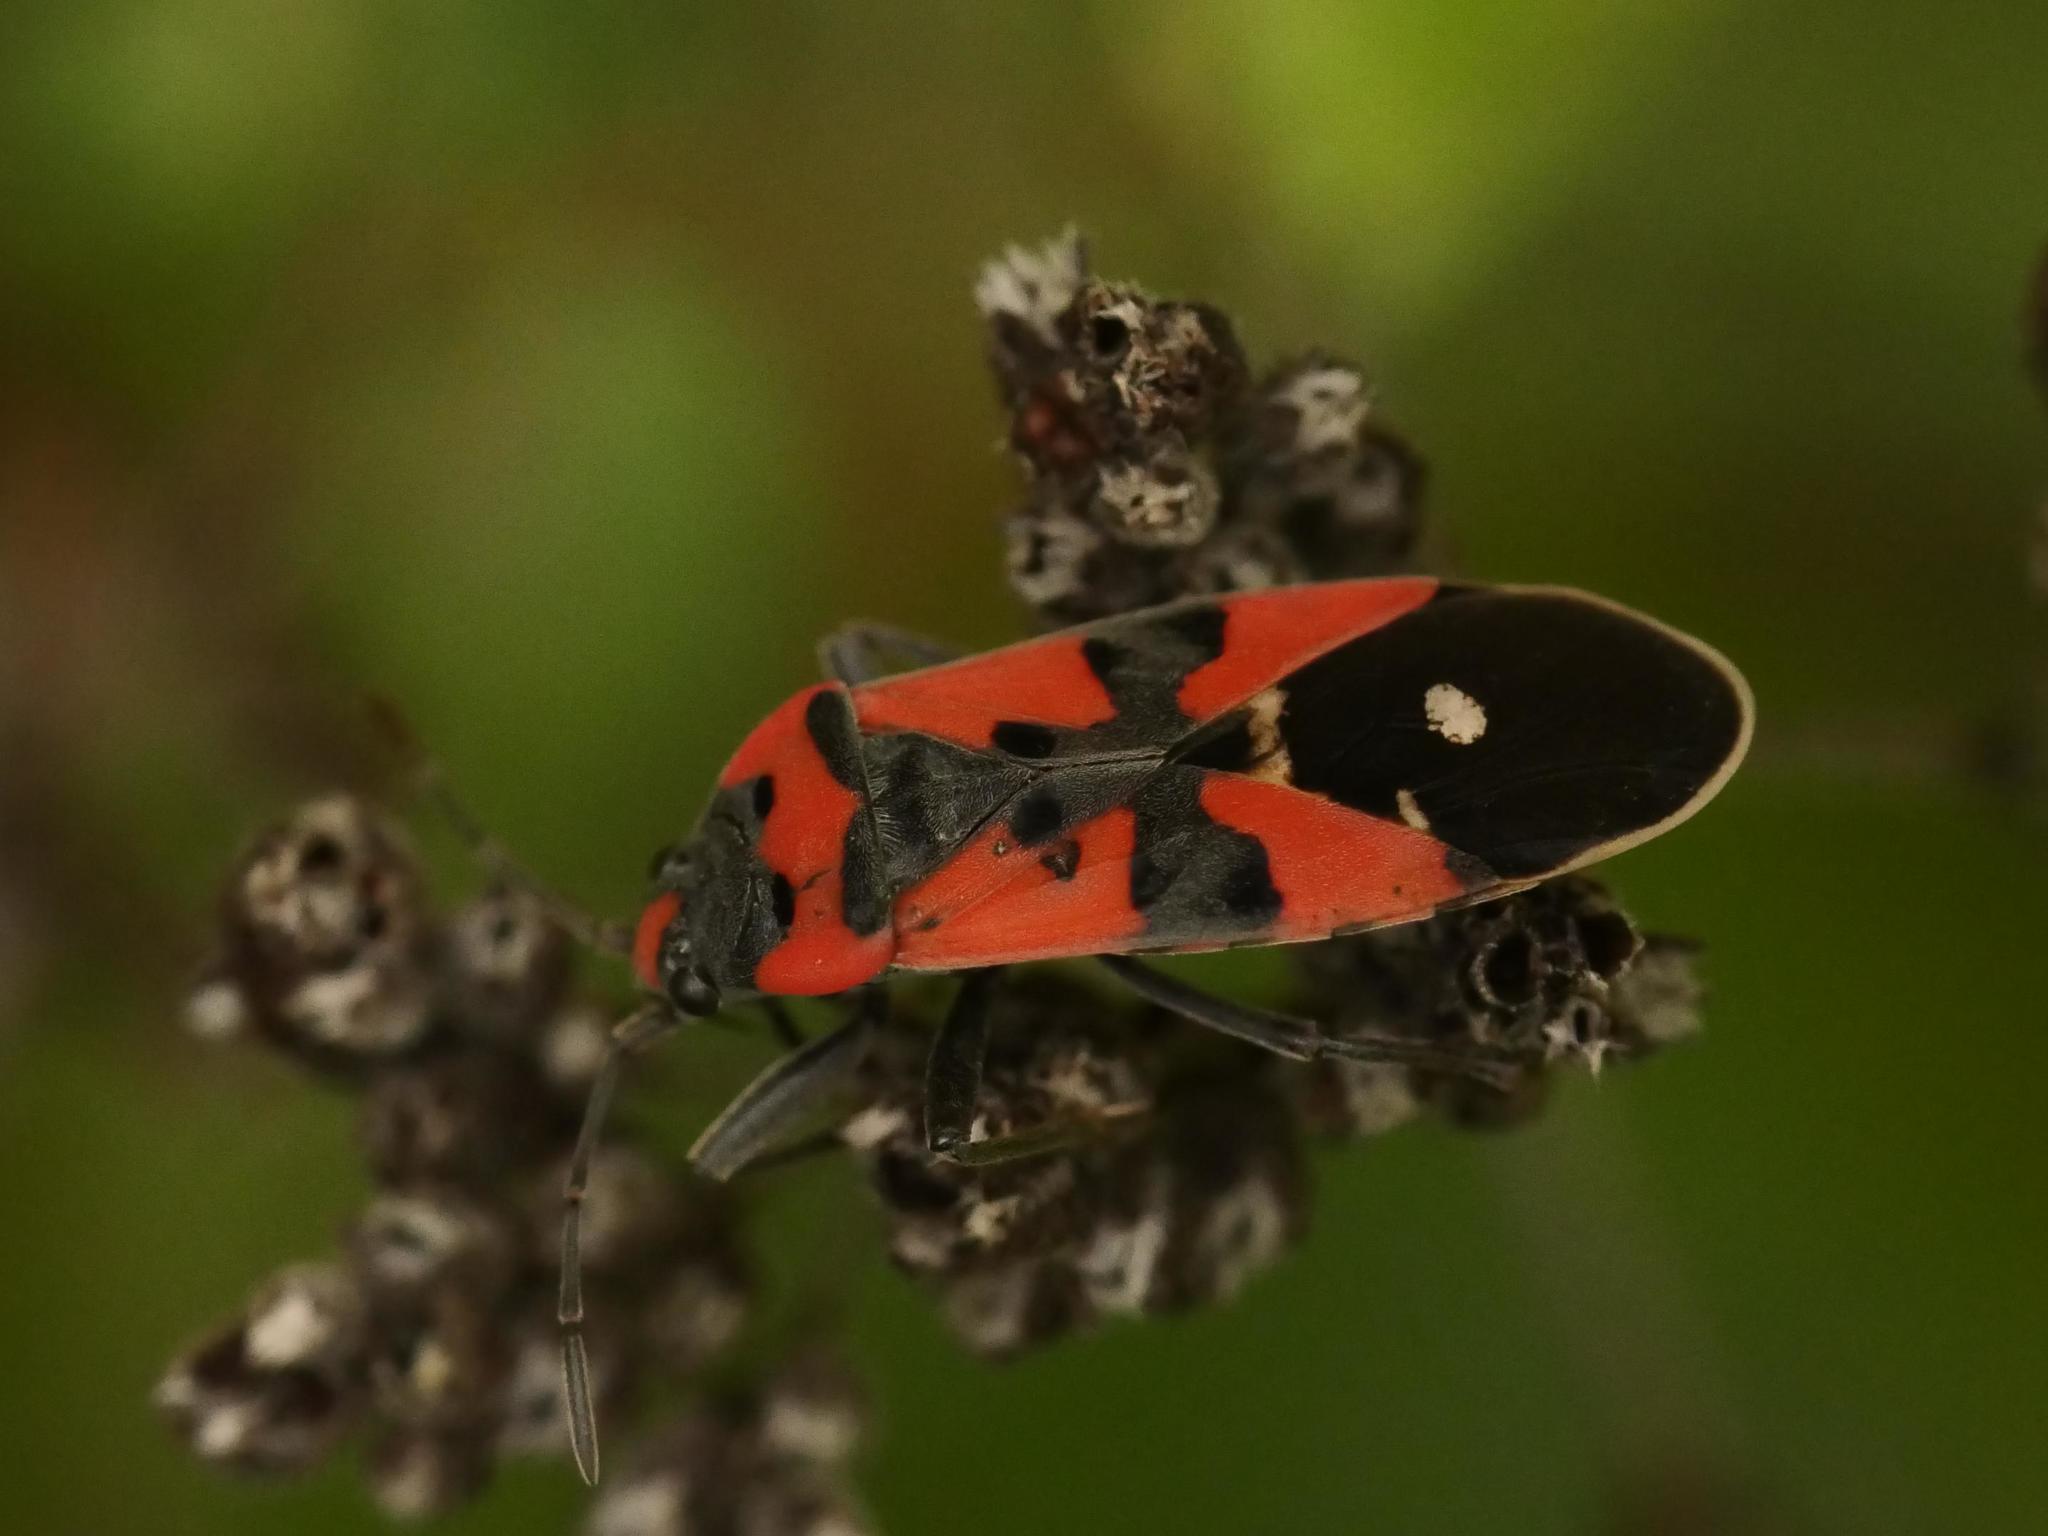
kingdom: Animalia
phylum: Arthropoda
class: Insecta
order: Hemiptera
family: Lygaeidae
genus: Lygaeus
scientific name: Lygaeus equestris
